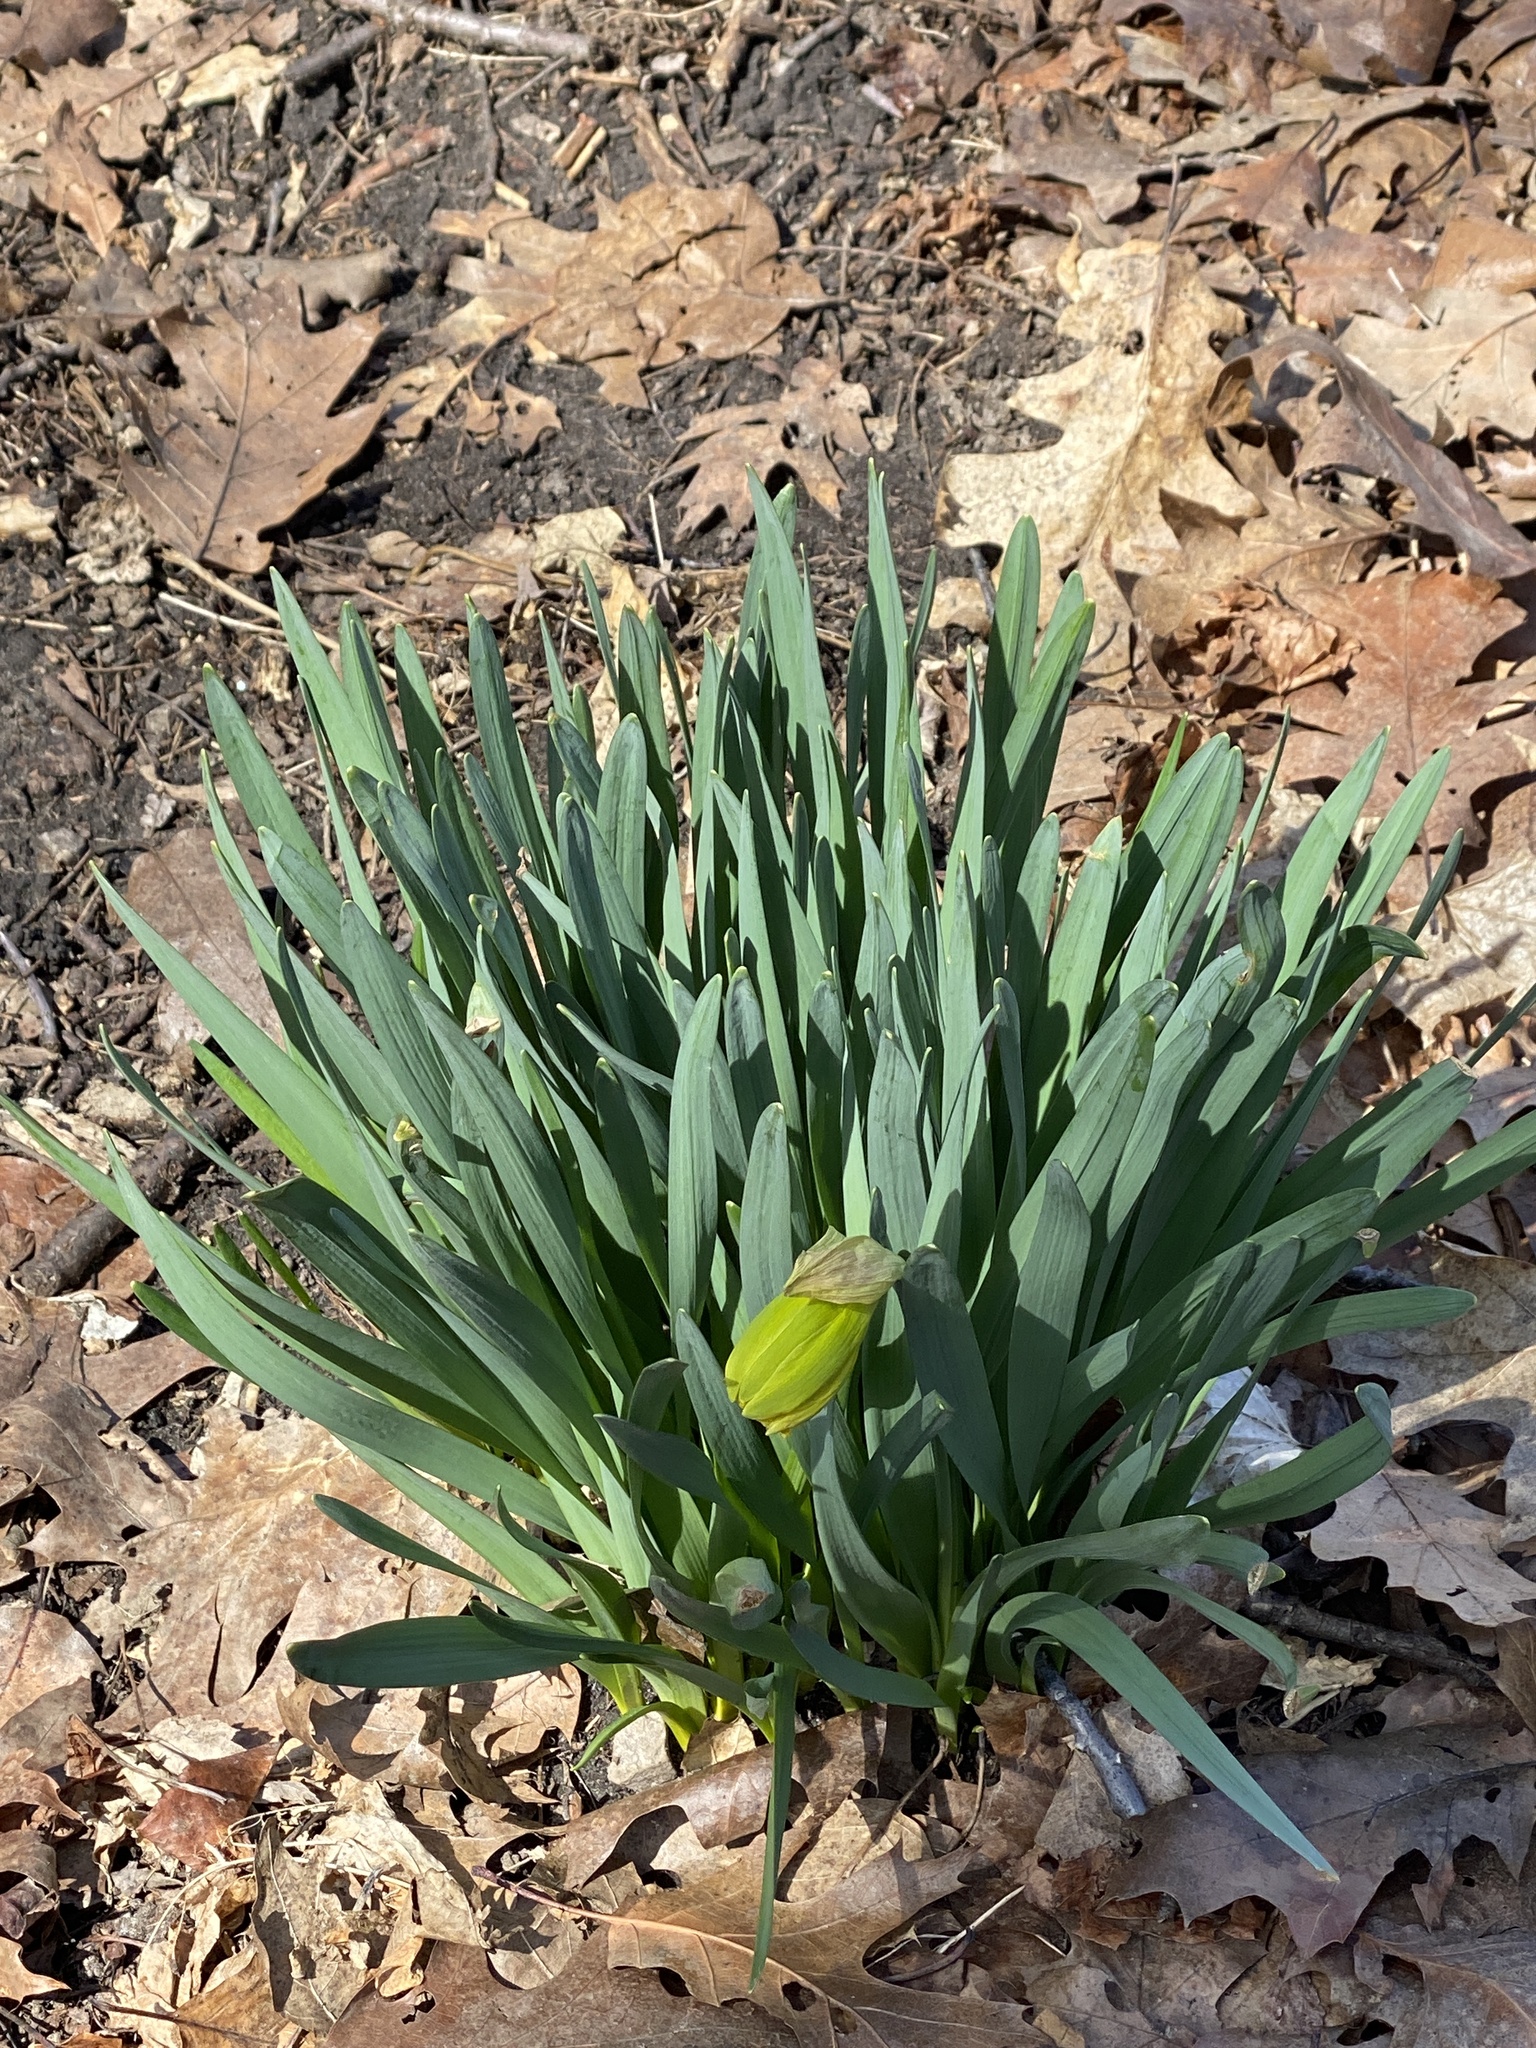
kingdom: Plantae
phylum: Tracheophyta
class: Liliopsida
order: Asparagales
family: Amaryllidaceae
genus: Narcissus
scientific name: Narcissus
